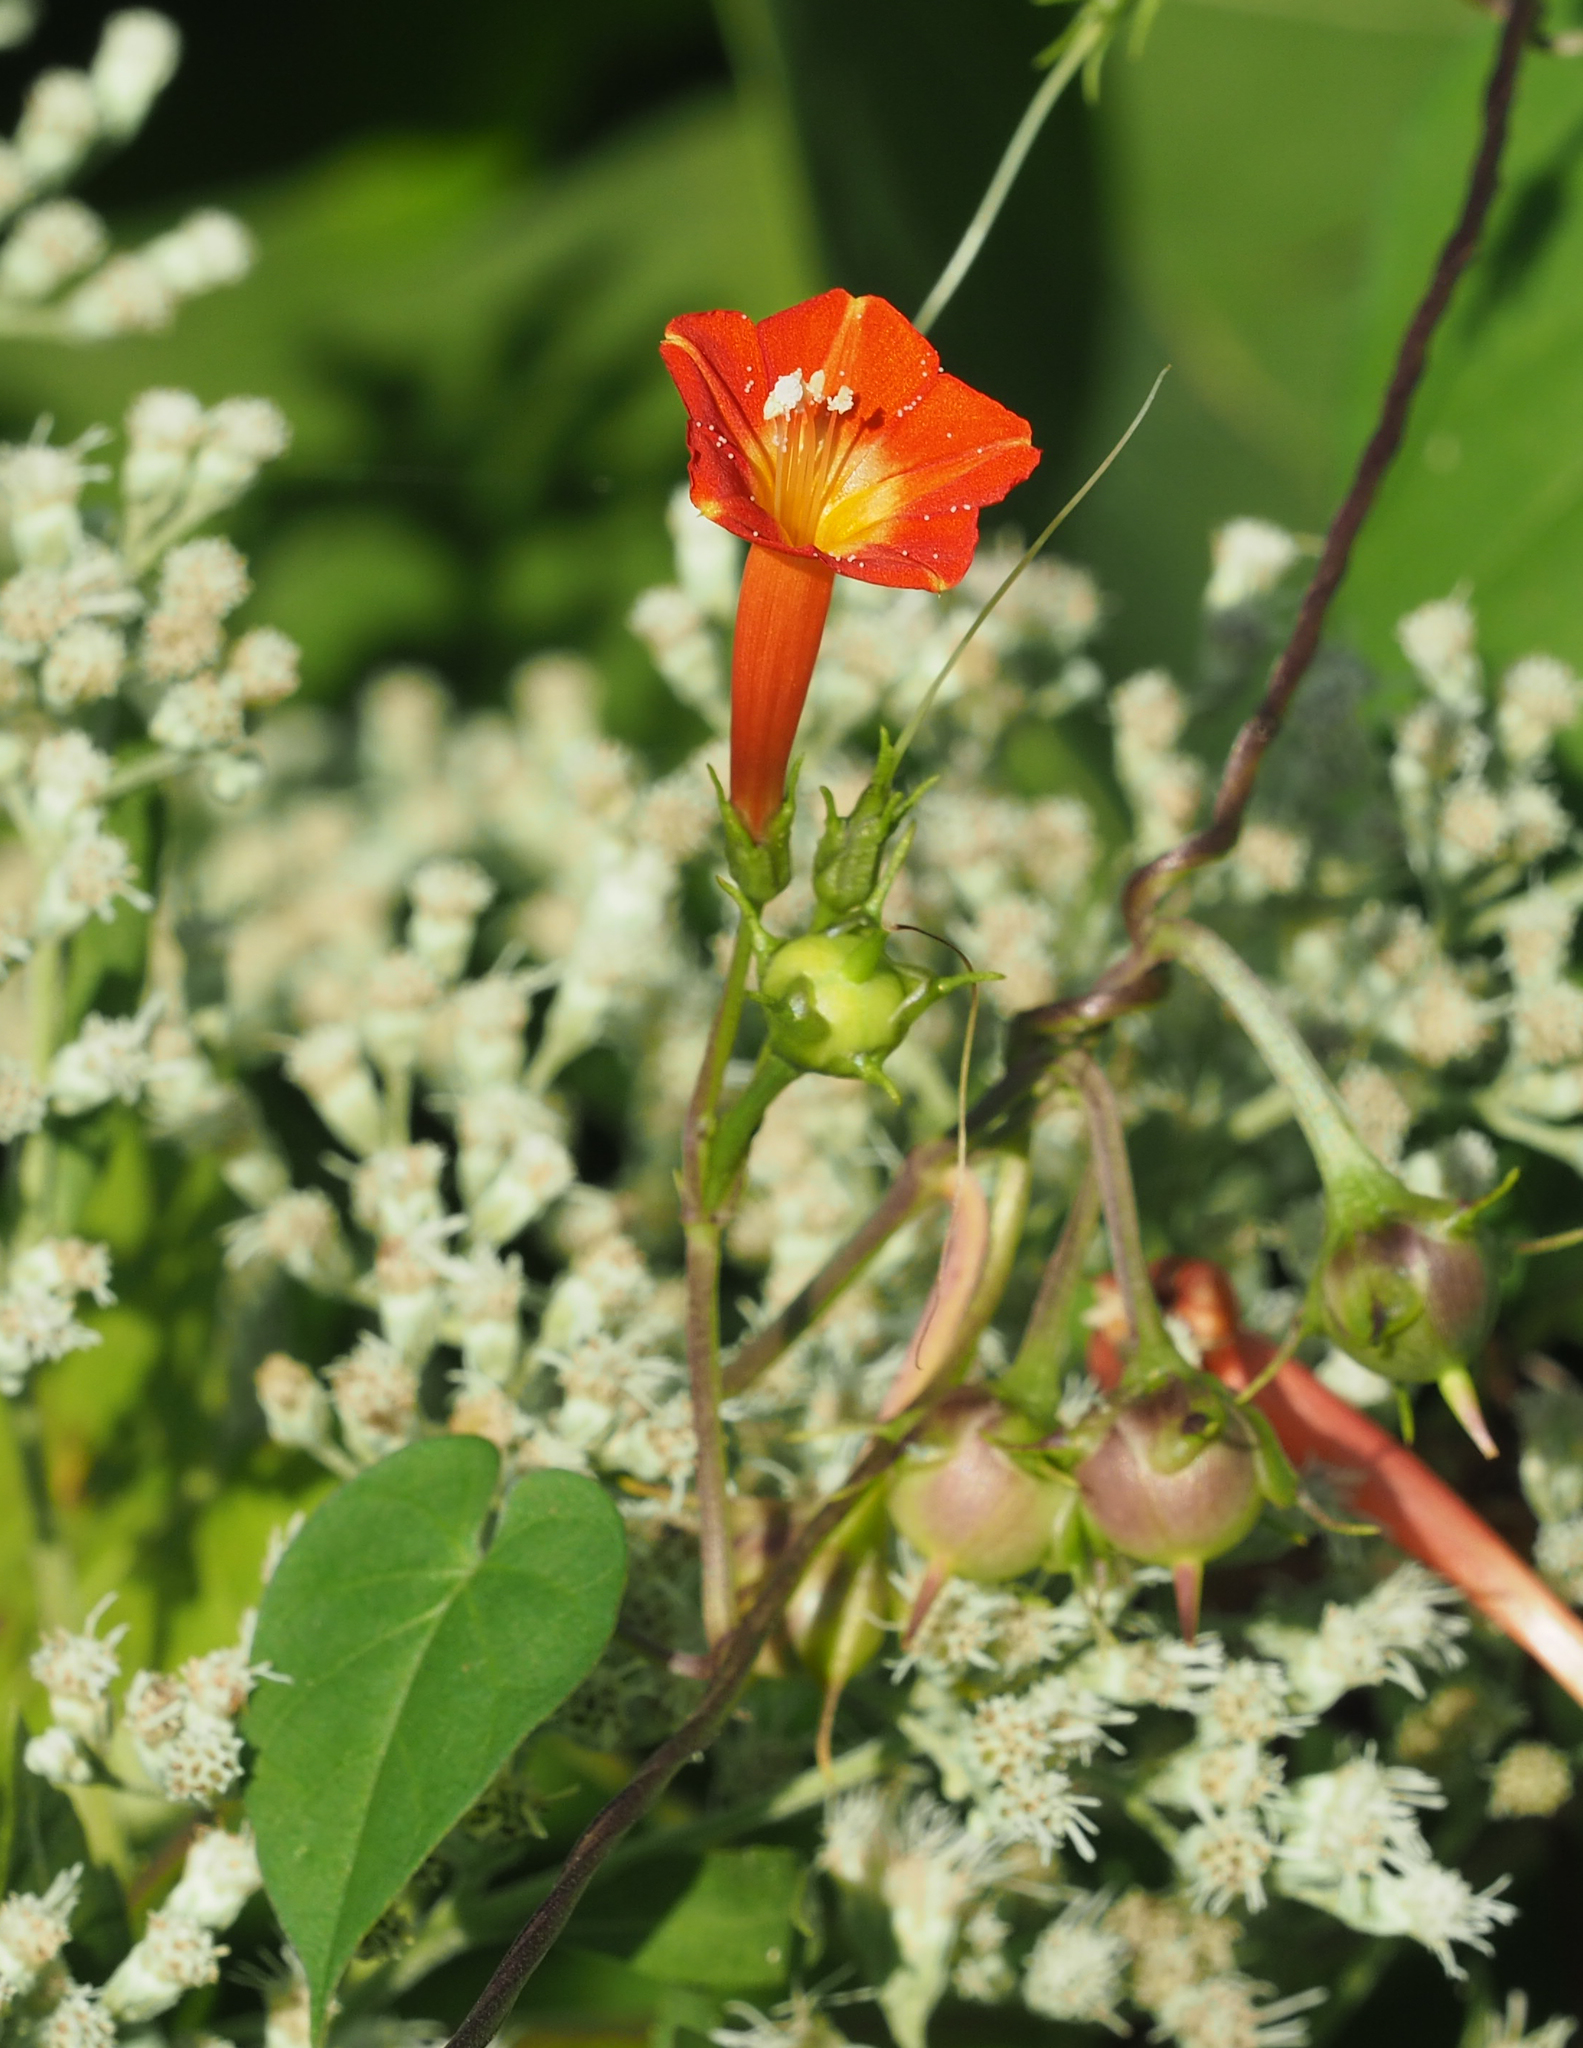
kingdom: Plantae
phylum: Tracheophyta
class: Magnoliopsida
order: Solanales
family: Convolvulaceae
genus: Ipomoea
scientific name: Ipomoea coccinea
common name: Red morning-glory
